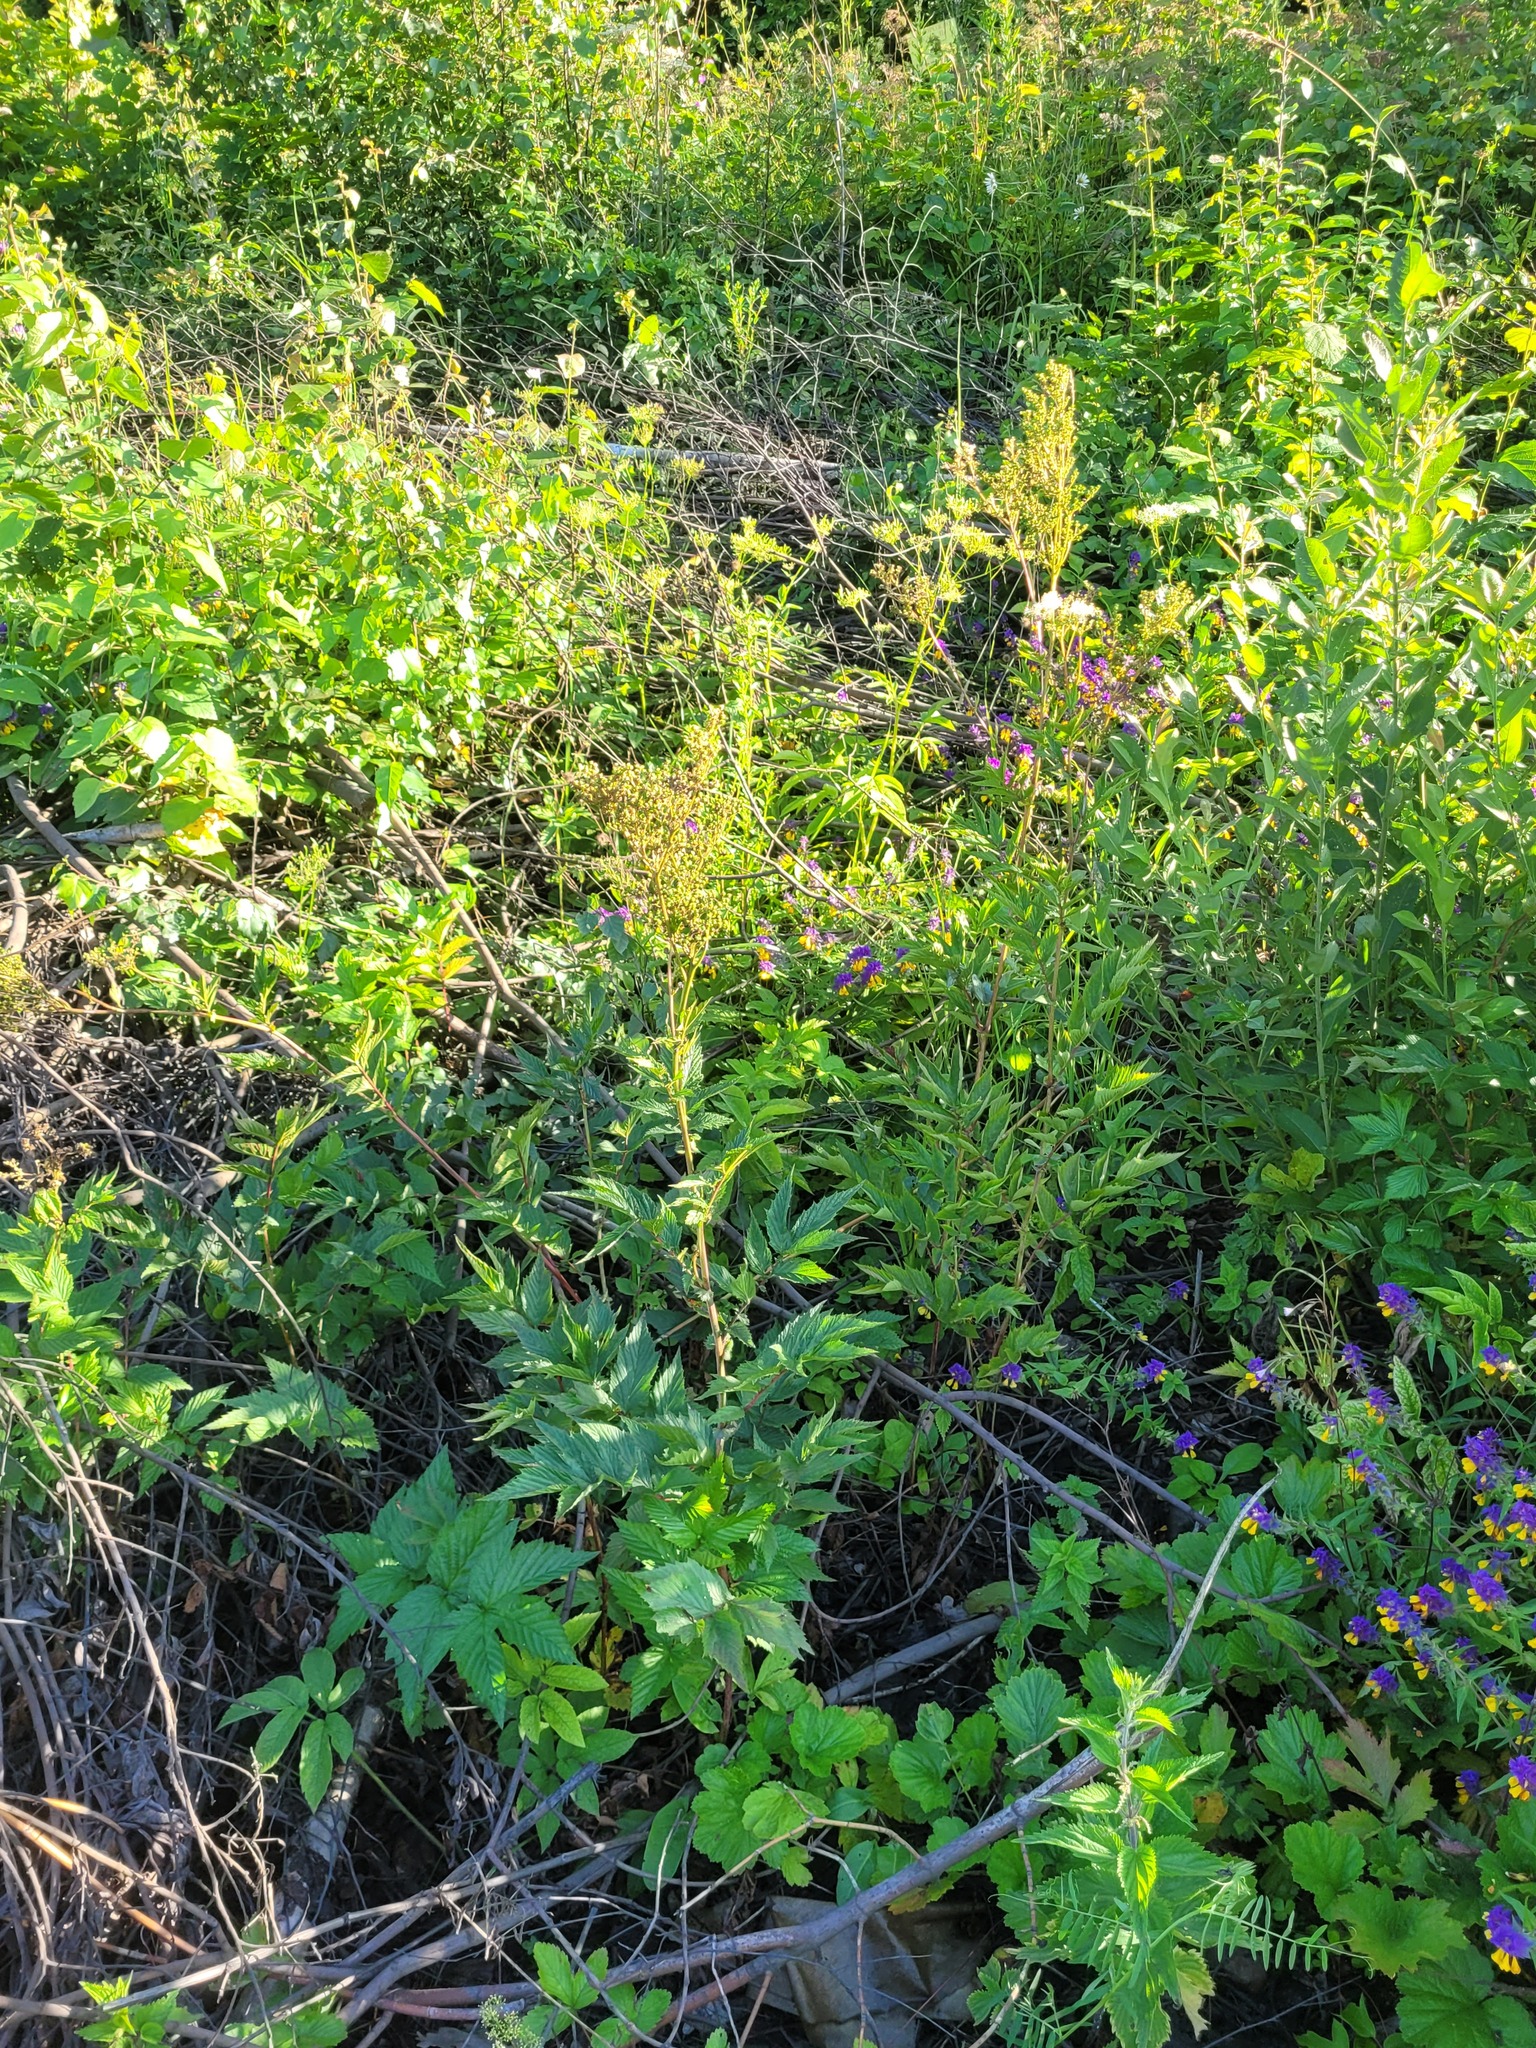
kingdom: Plantae
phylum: Tracheophyta
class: Magnoliopsida
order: Rosales
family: Rosaceae
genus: Filipendula
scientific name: Filipendula ulmaria
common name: Meadowsweet
